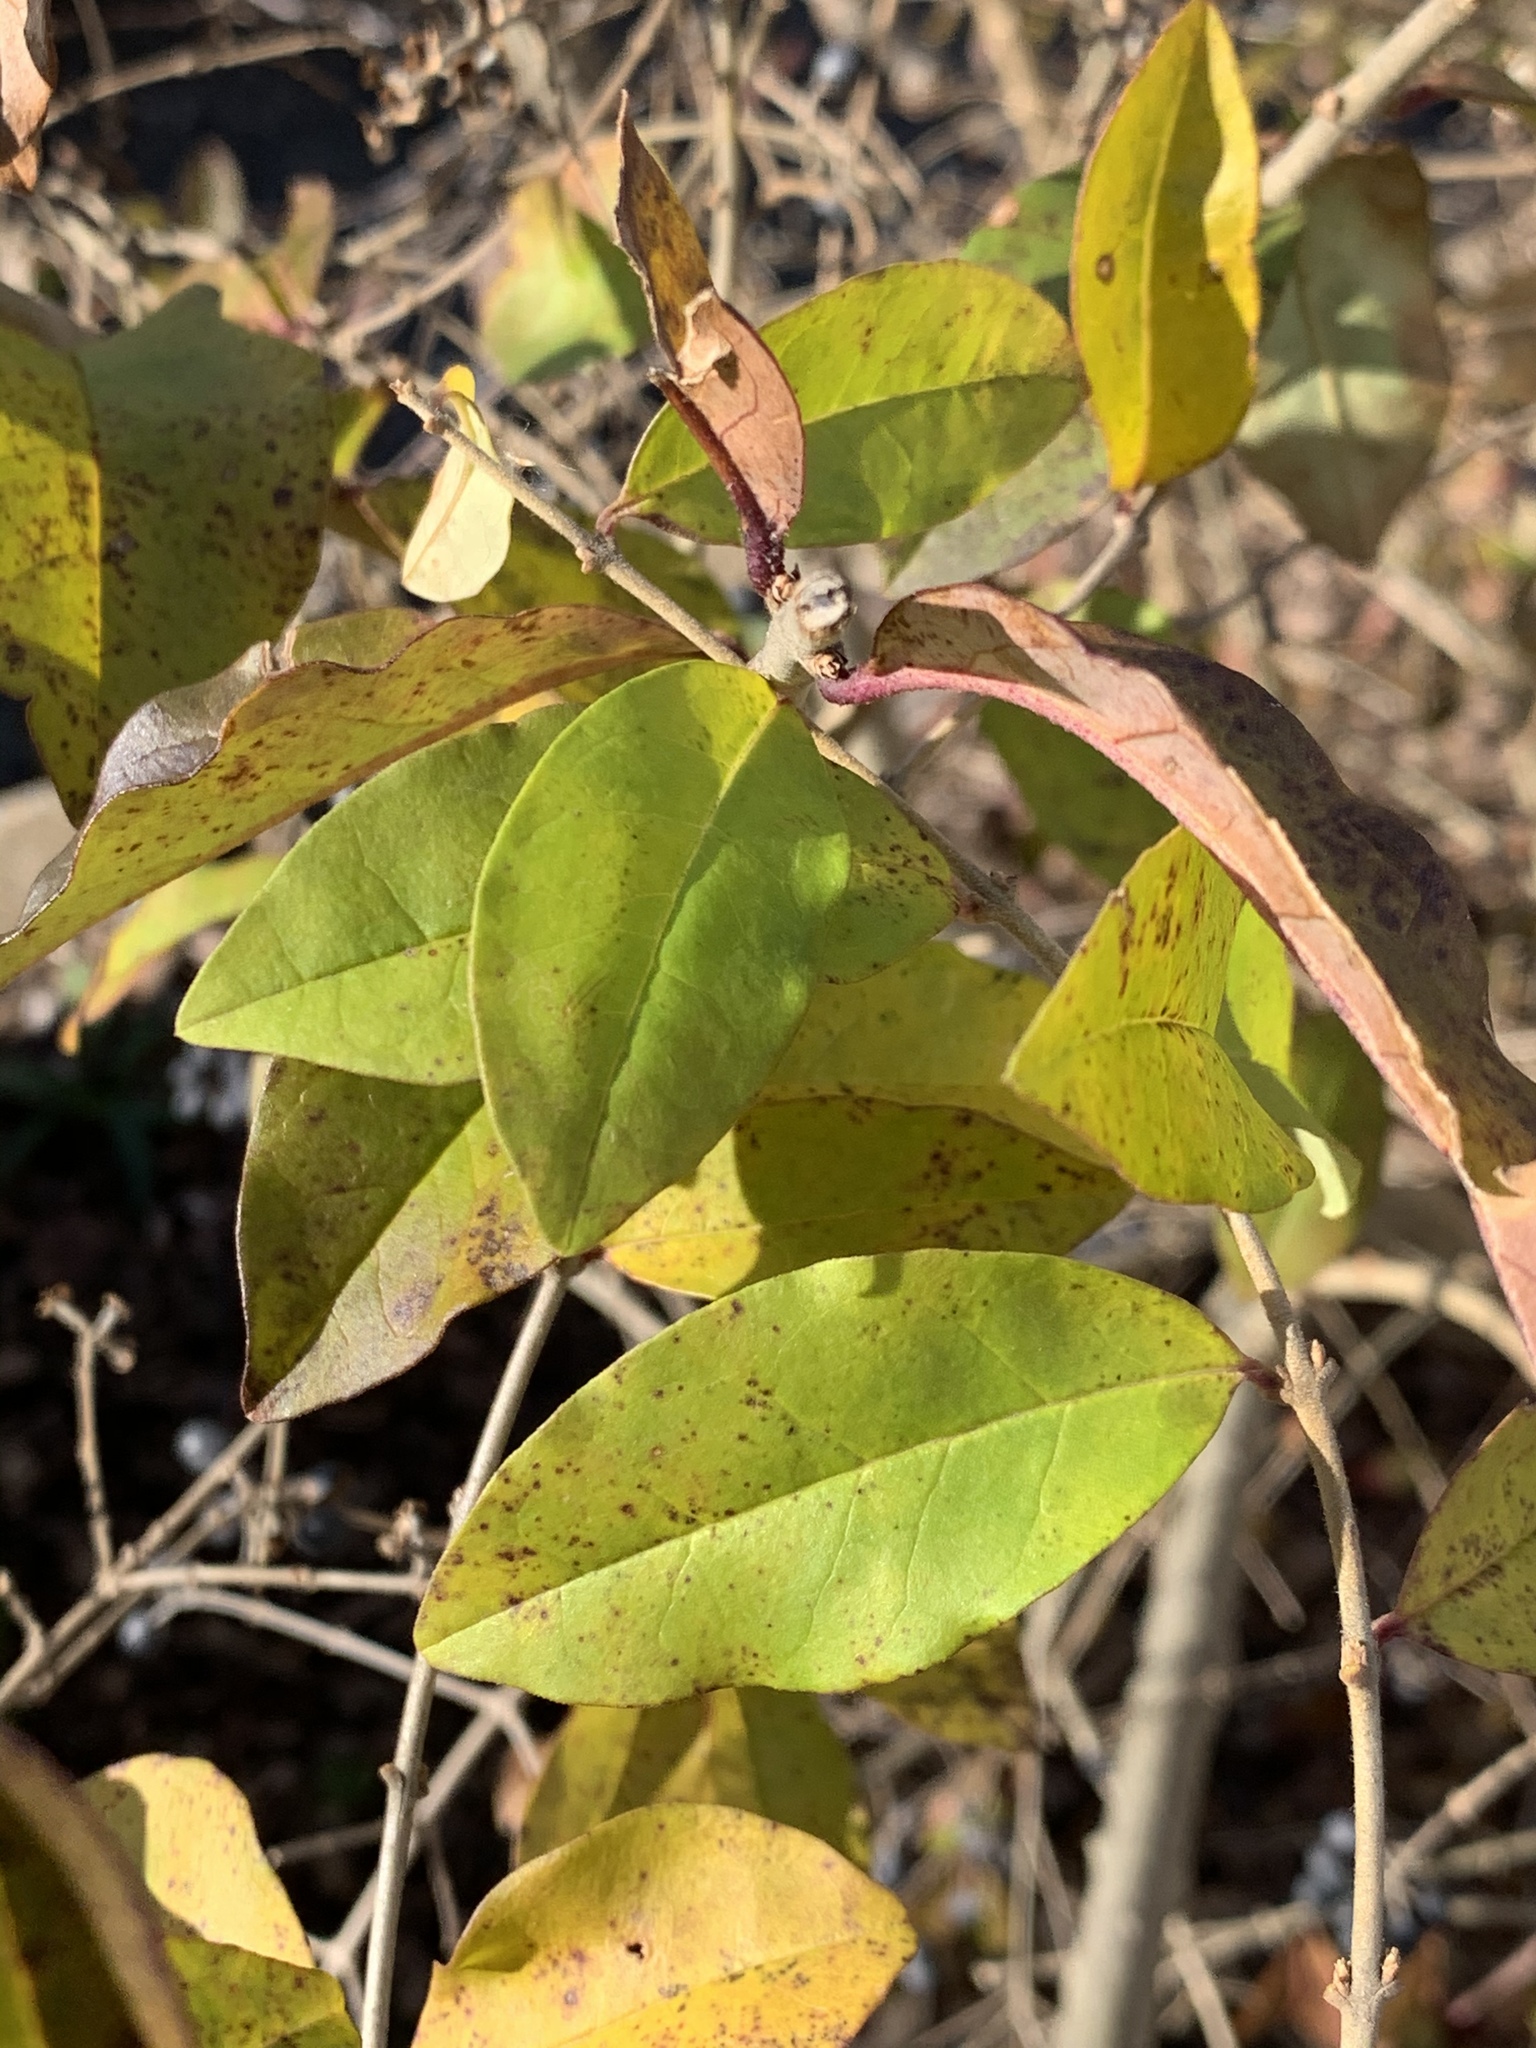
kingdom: Plantae
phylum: Tracheophyta
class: Magnoliopsida
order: Lamiales
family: Oleaceae
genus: Ligustrum
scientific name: Ligustrum obtusifolium
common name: Border privet
